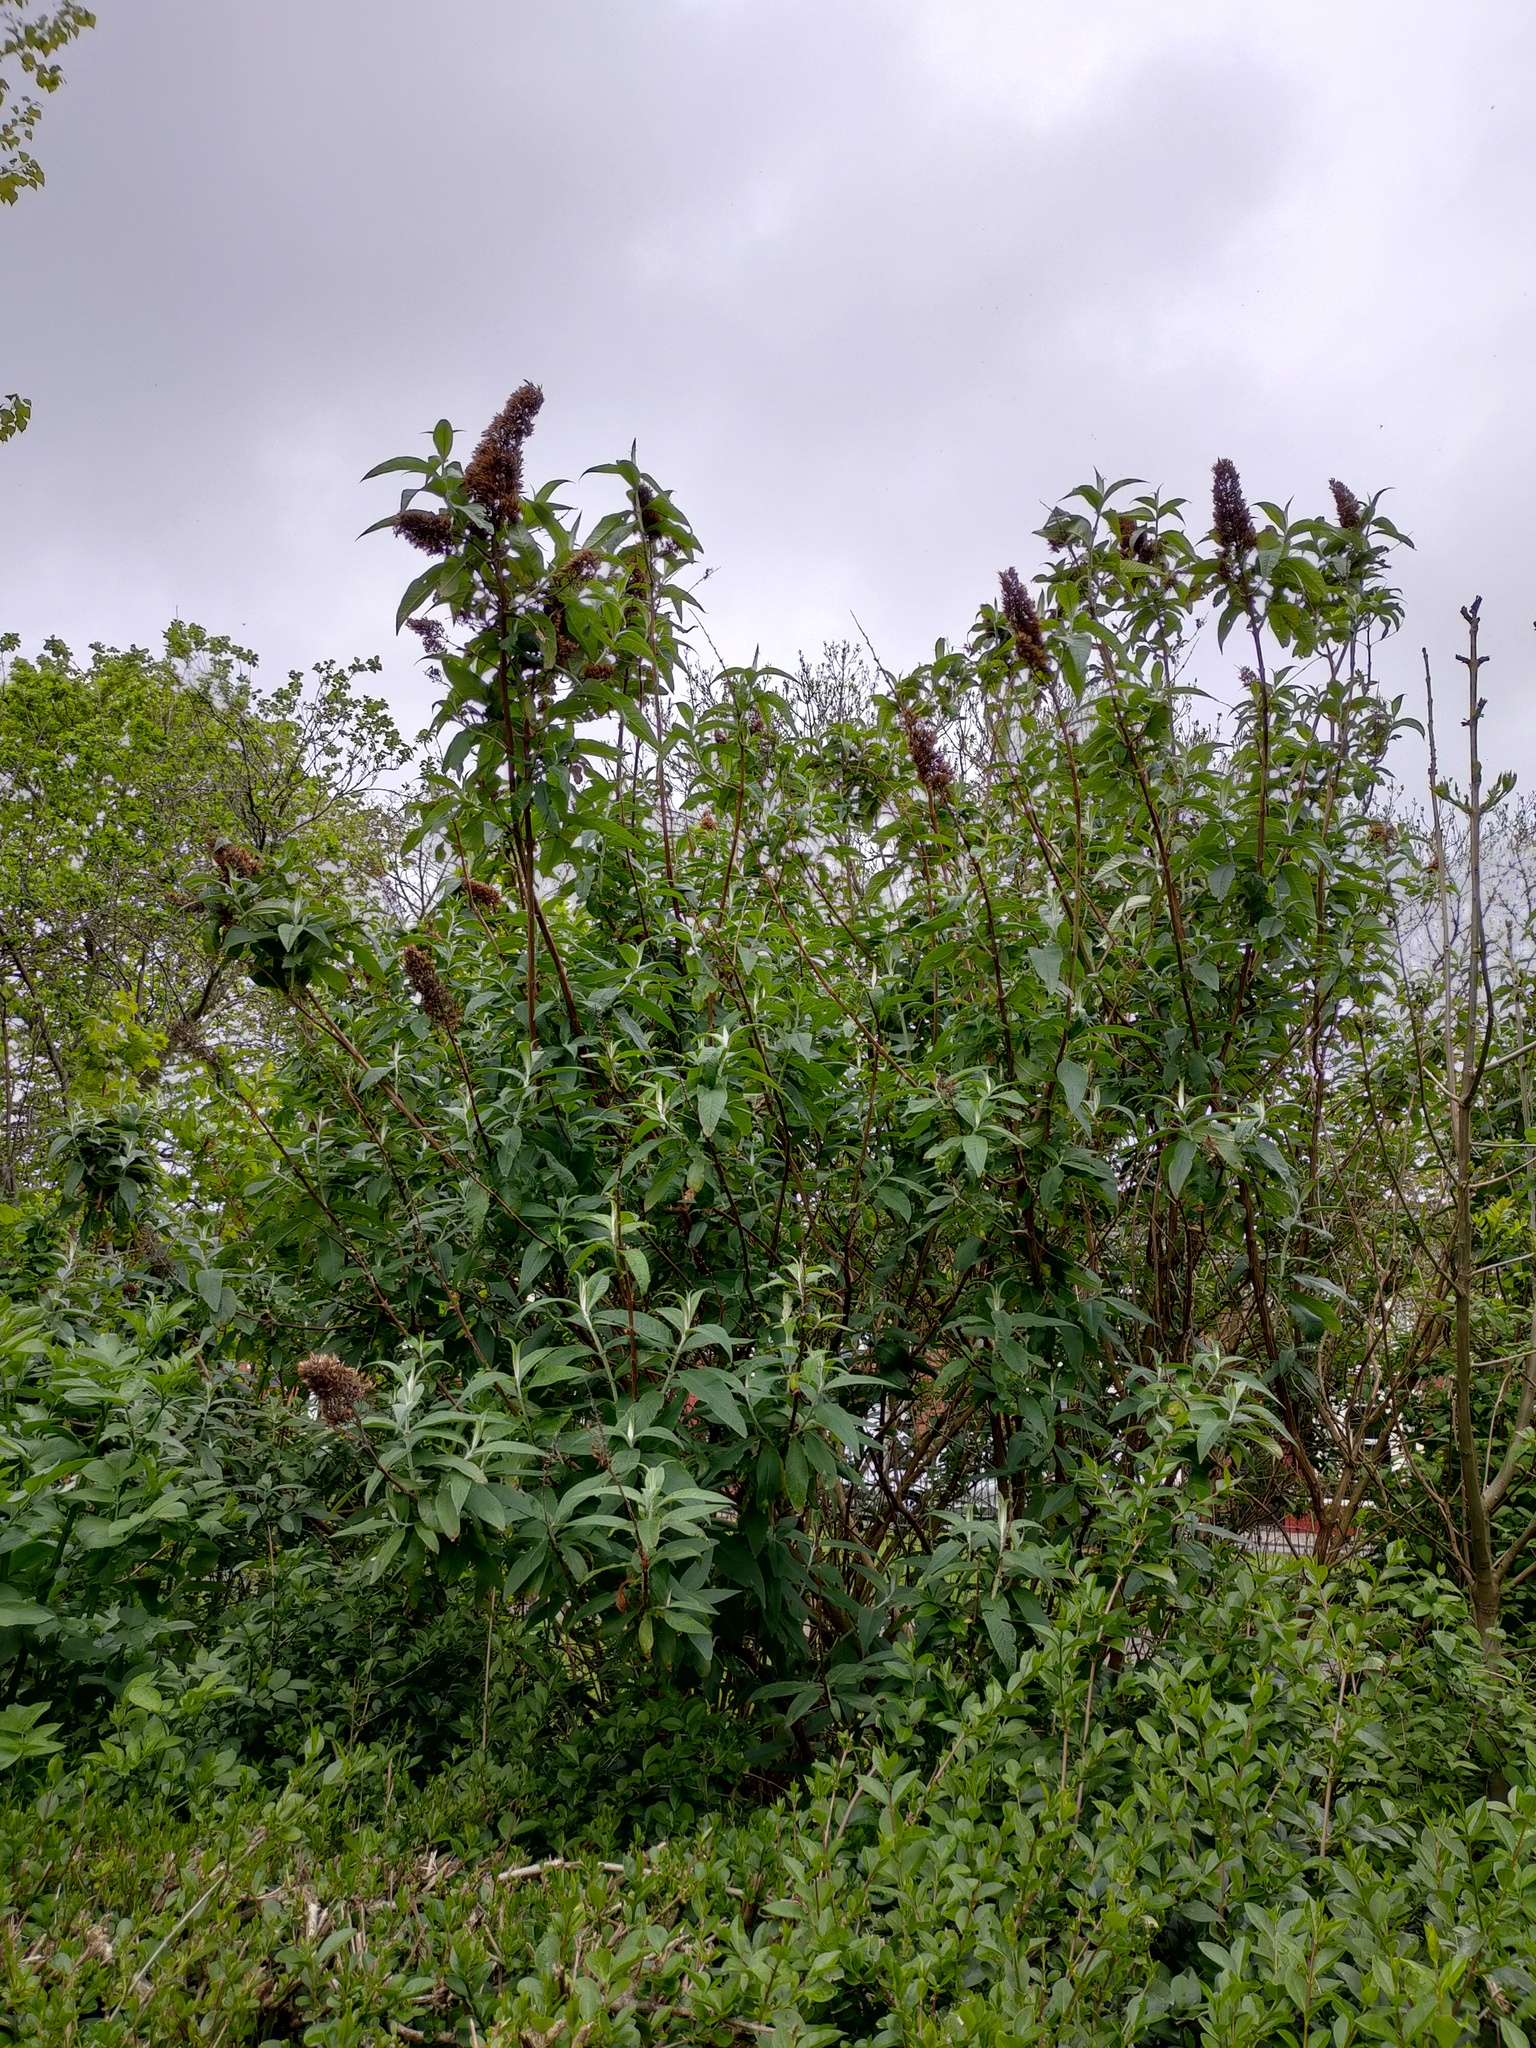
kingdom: Plantae
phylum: Tracheophyta
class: Magnoliopsida
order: Lamiales
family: Scrophulariaceae
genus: Buddleja
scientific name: Buddleja davidii
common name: Butterfly-bush
